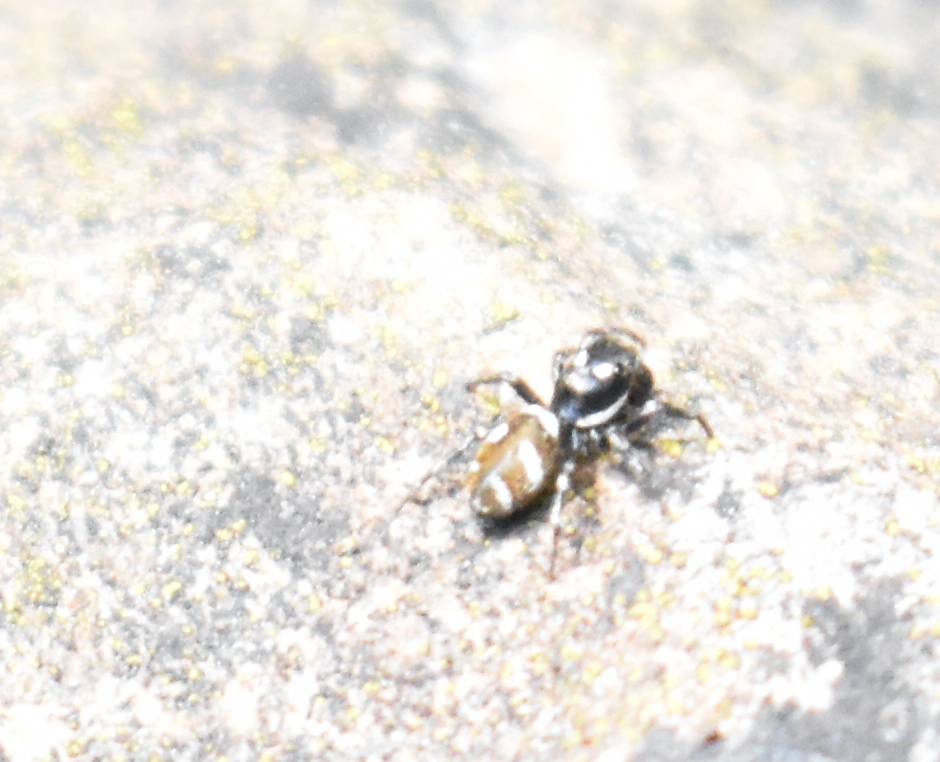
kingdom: Animalia
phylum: Arthropoda
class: Arachnida
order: Araneae
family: Salticidae
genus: Salticus
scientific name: Salticus scenicus
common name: Zebra jumper
